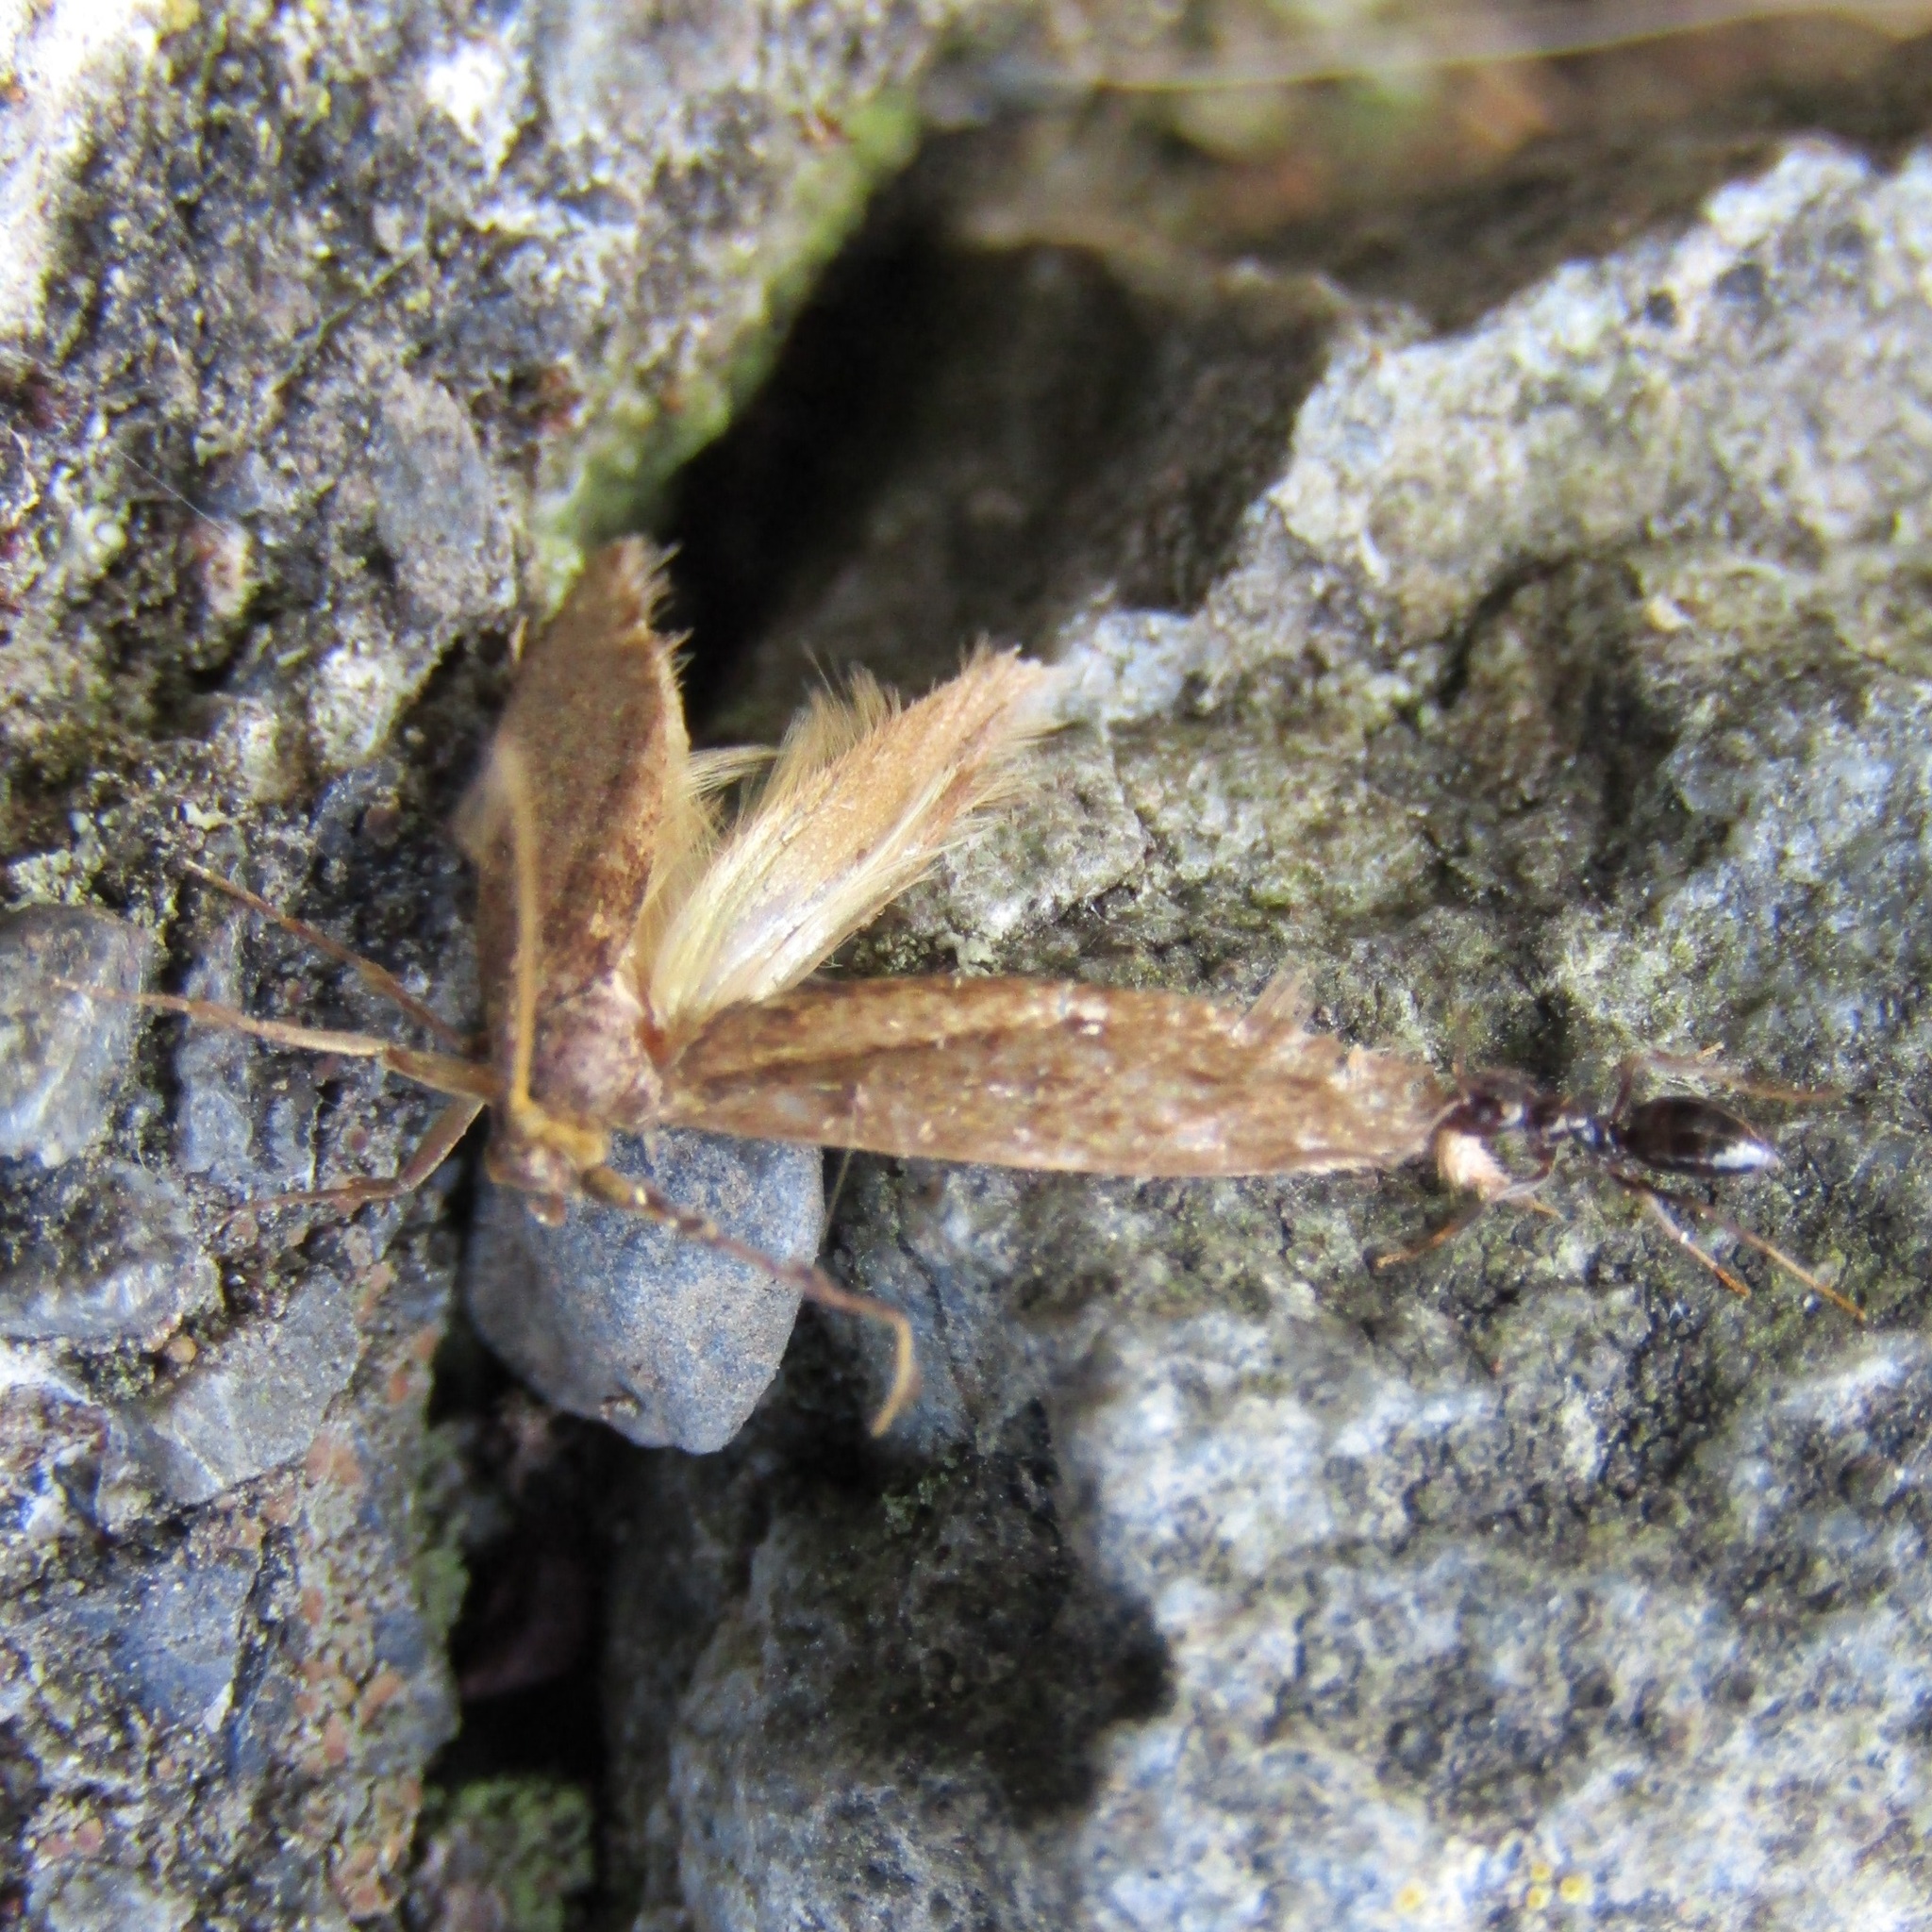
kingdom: Animalia
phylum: Arthropoda
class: Insecta
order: Hymenoptera
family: Formicidae
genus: Prolasius
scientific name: Prolasius advenus
